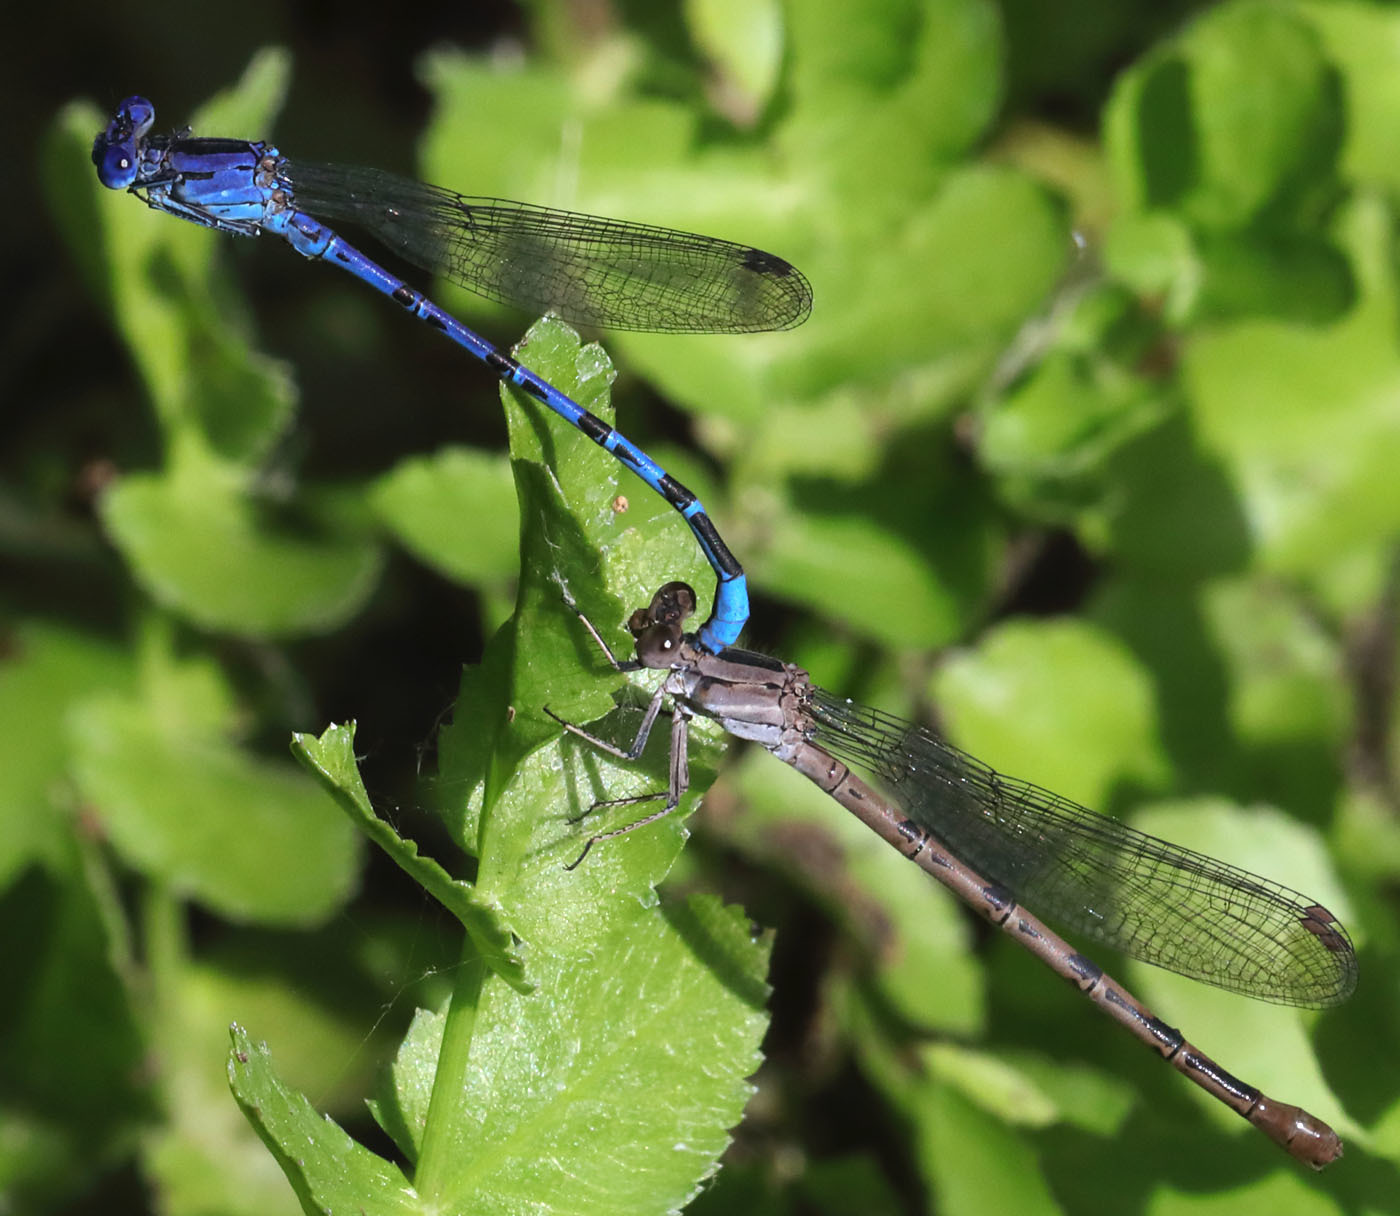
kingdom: Animalia
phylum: Arthropoda
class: Insecta
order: Odonata
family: Coenagrionidae
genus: Argia
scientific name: Argia vivida
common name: Vivid dancer
